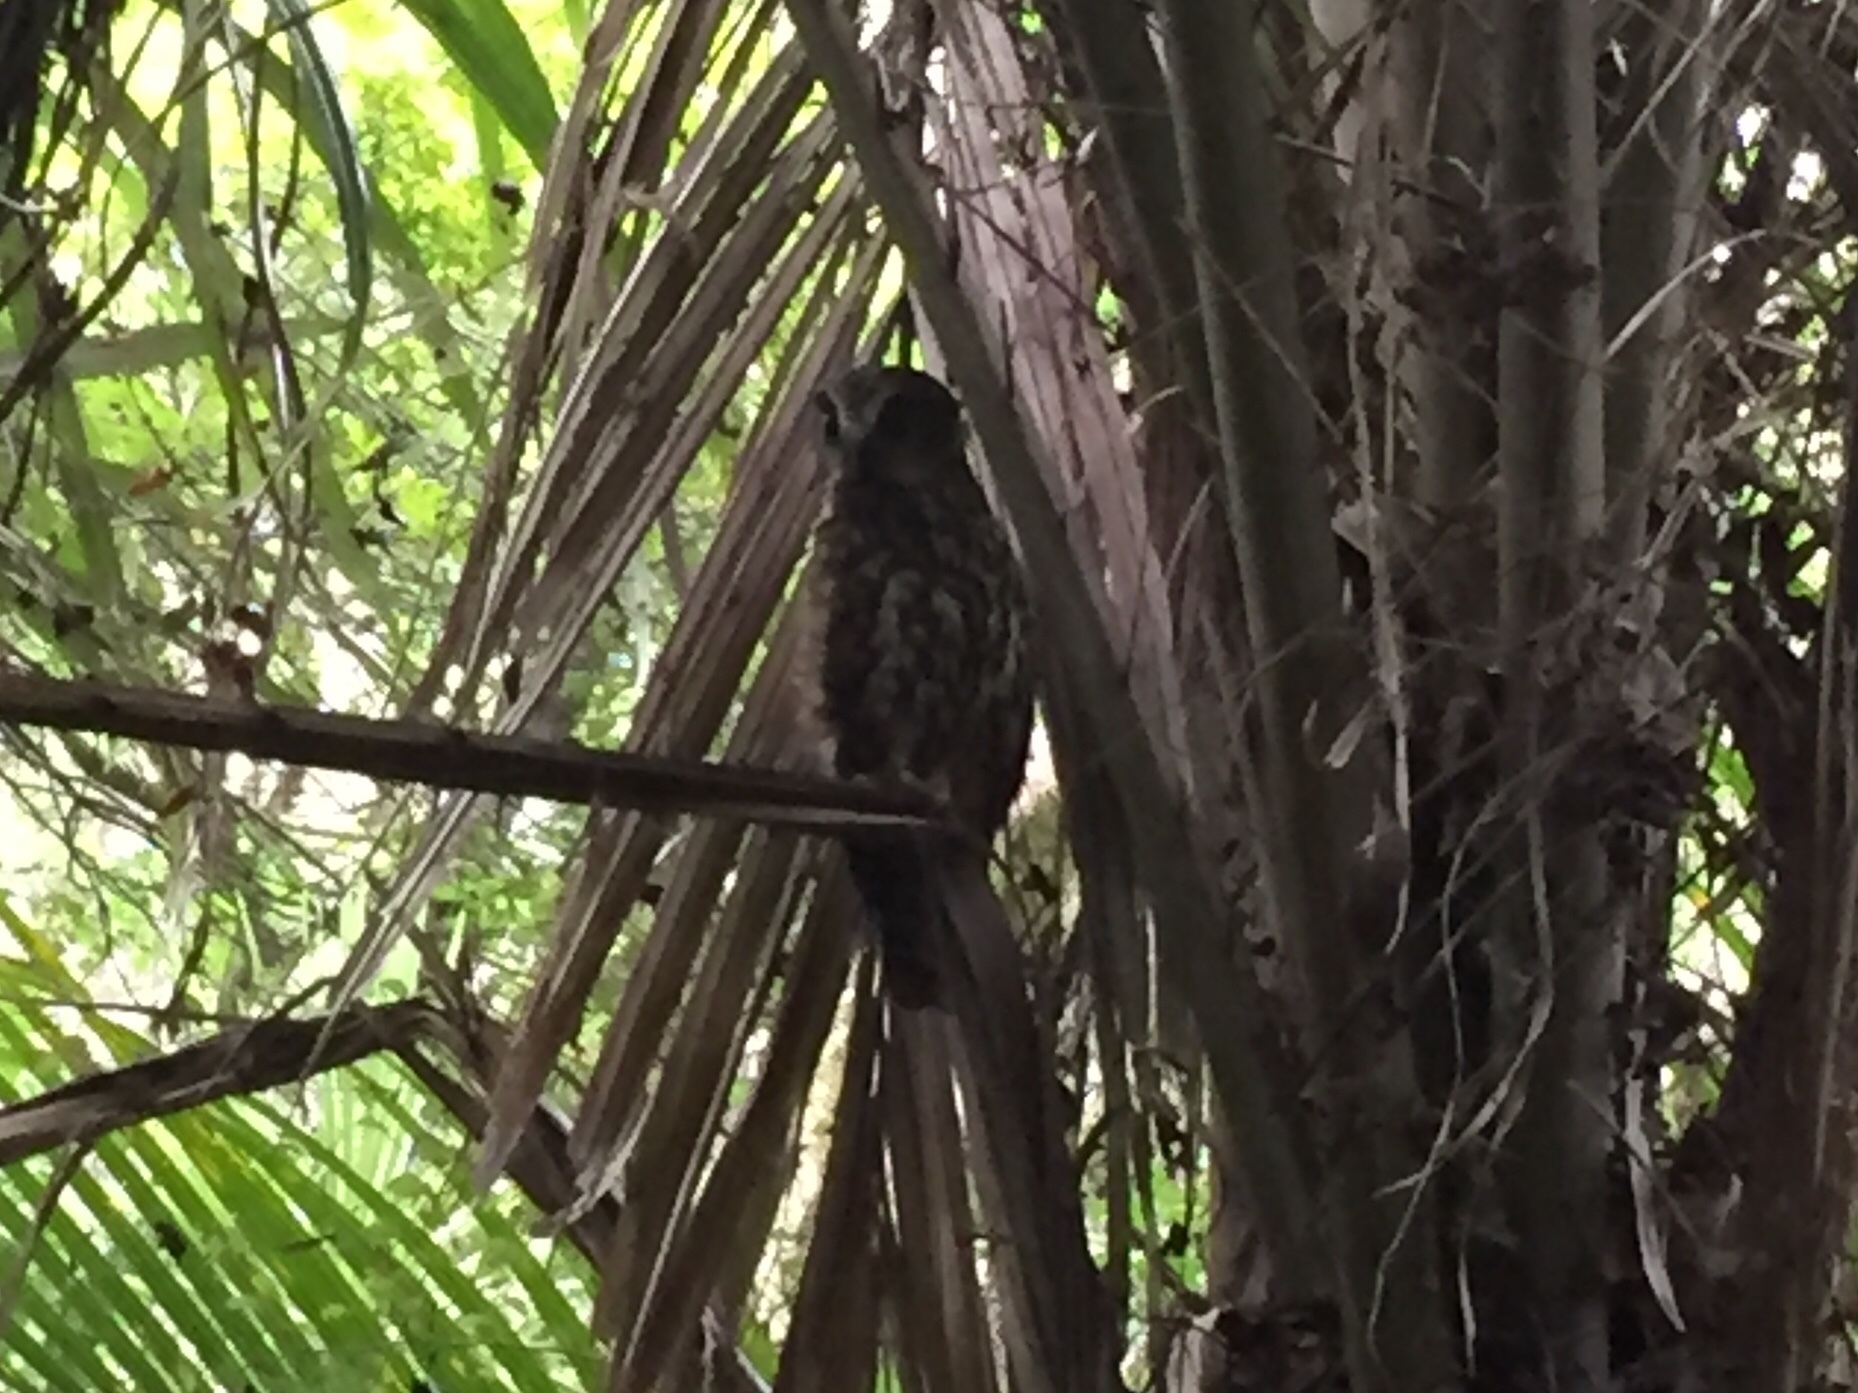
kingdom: Animalia
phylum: Chordata
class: Aves
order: Strigiformes
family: Strigidae
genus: Ninox
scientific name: Ninox novaeseelandiae
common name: Morepork
